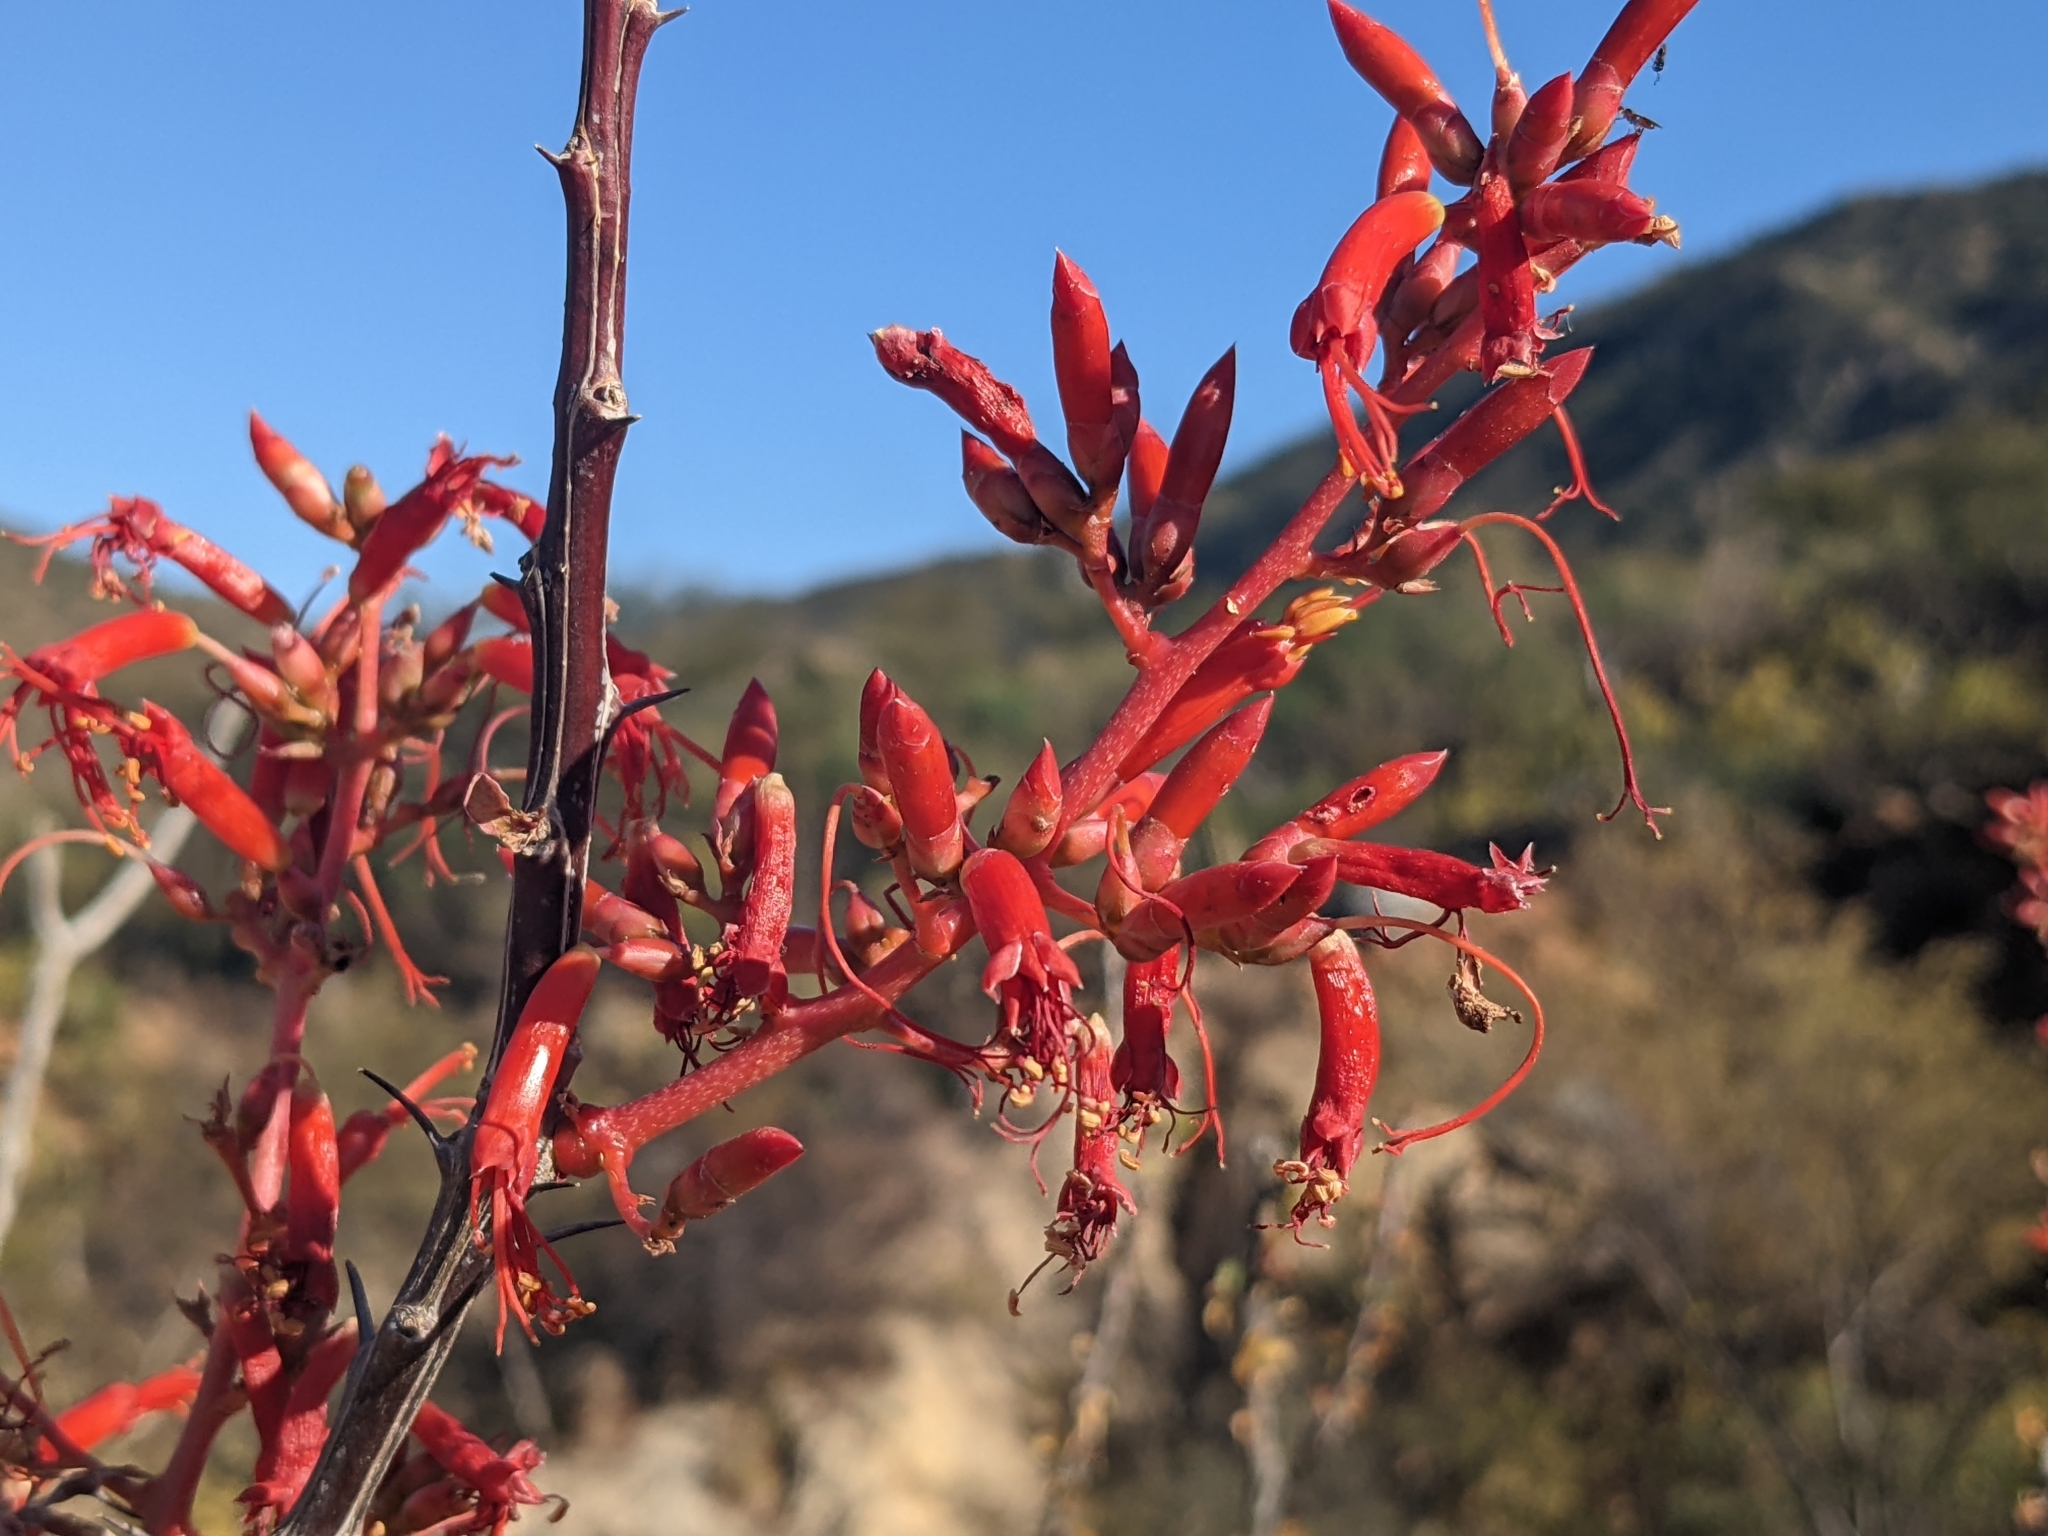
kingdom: Plantae
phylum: Tracheophyta
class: Magnoliopsida
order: Ericales
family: Fouquieriaceae
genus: Fouquieria
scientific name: Fouquieria diguetii
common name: Adam's tree
